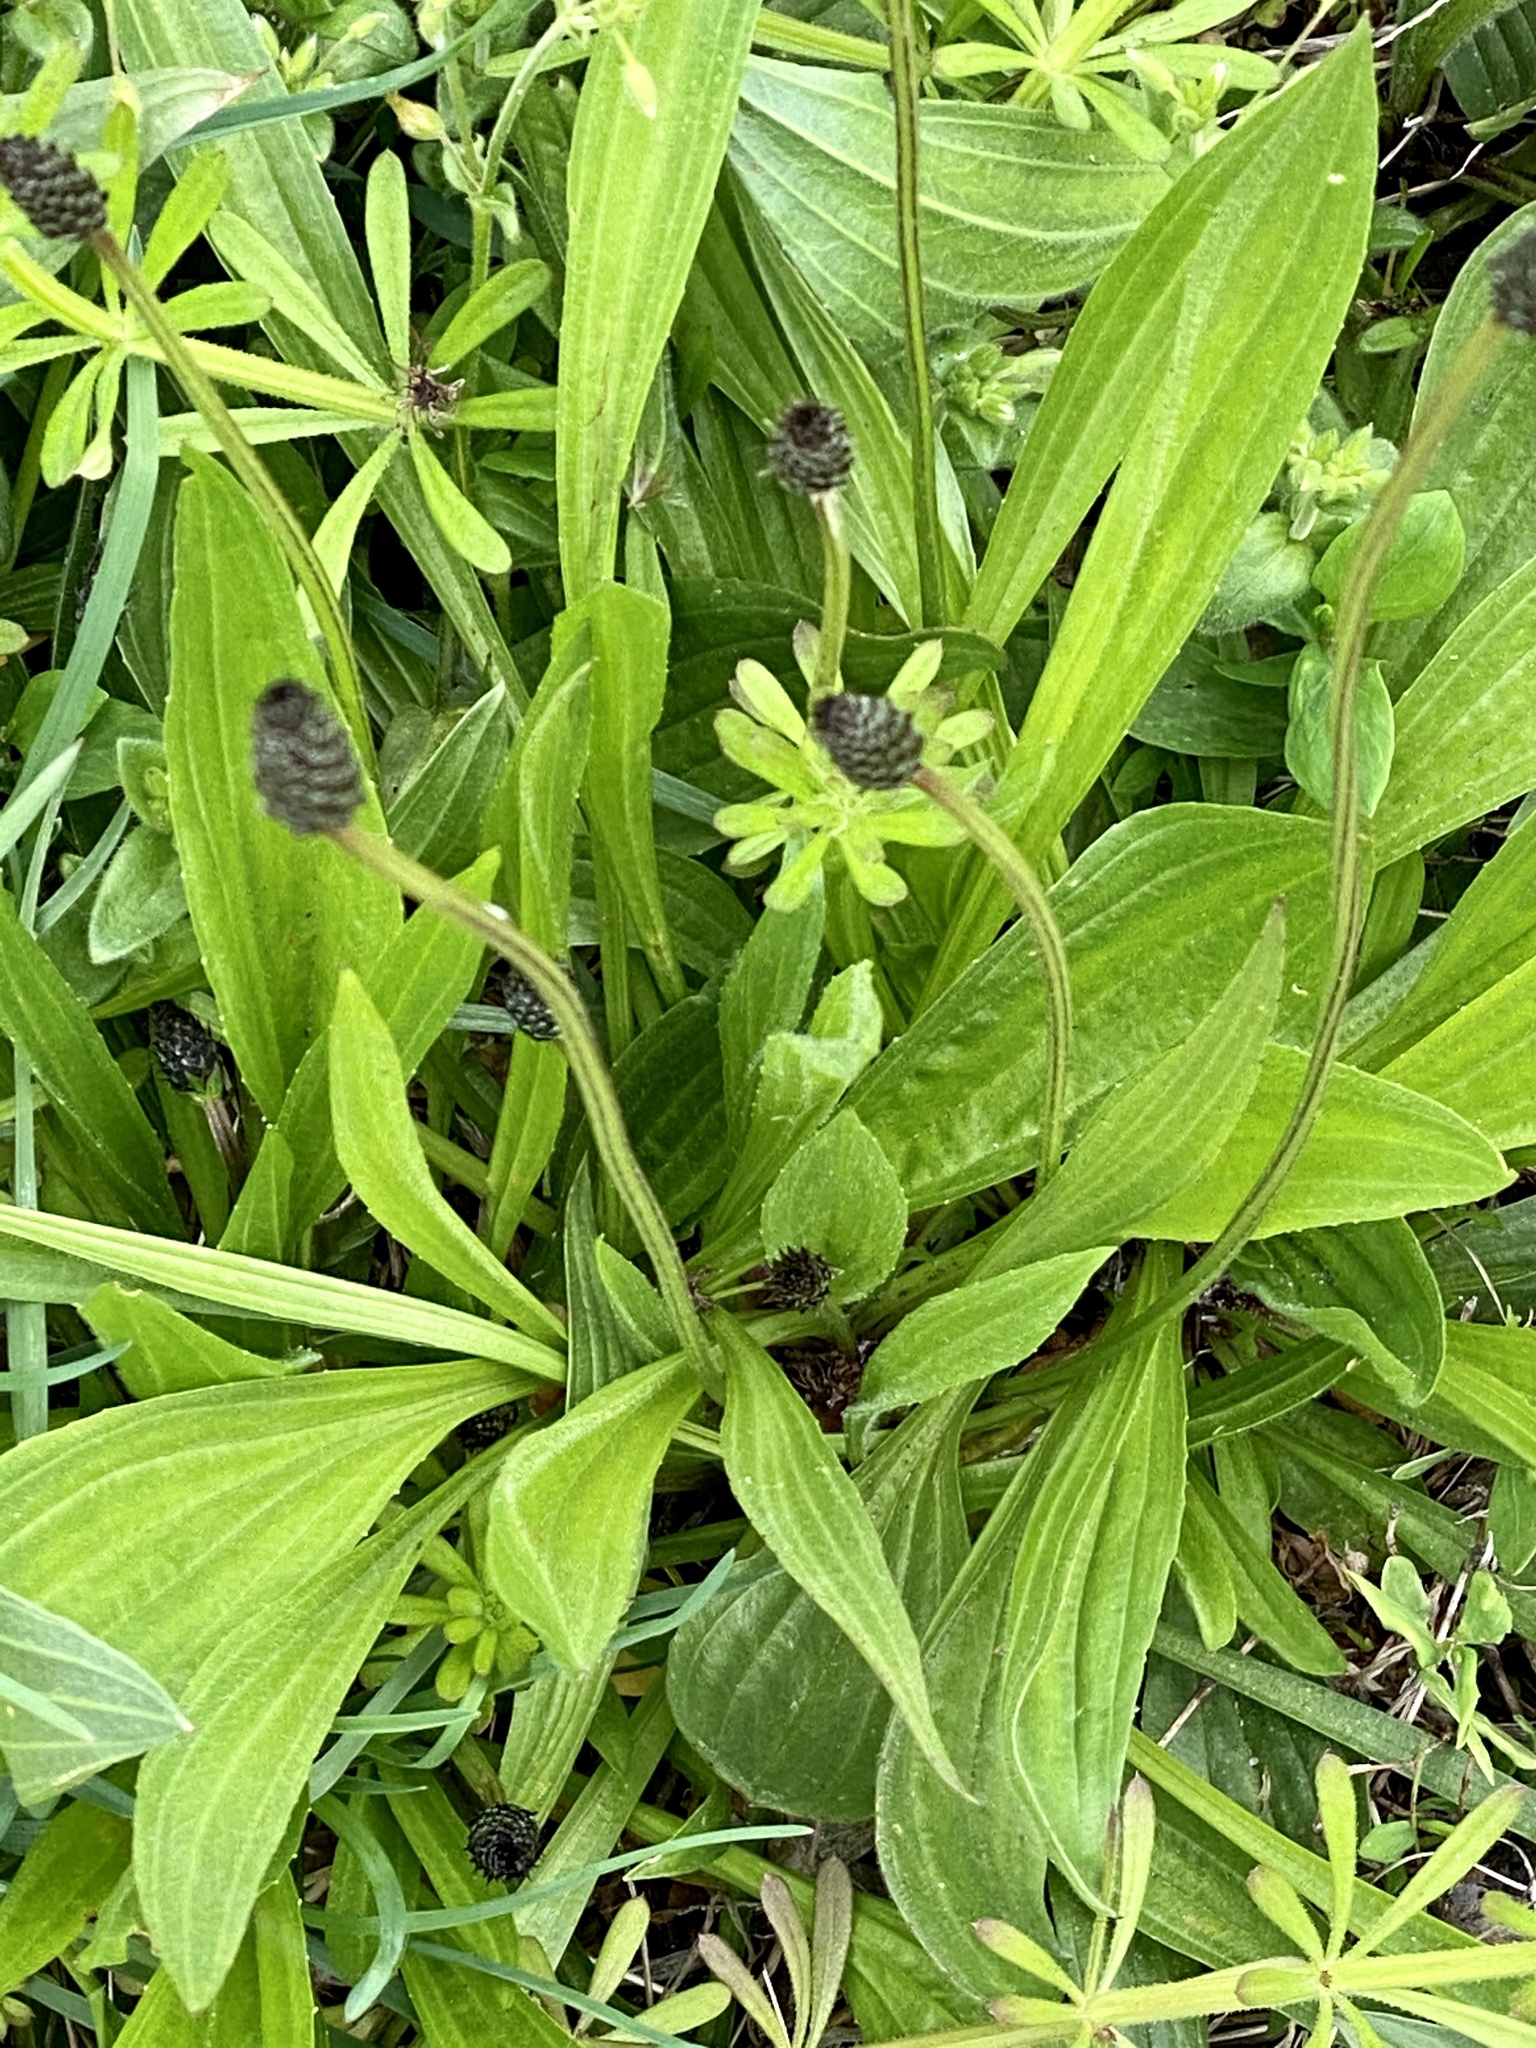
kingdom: Plantae
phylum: Tracheophyta
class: Magnoliopsida
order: Lamiales
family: Plantaginaceae
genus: Plantago
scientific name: Plantago lanceolata
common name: Ribwort plantain
